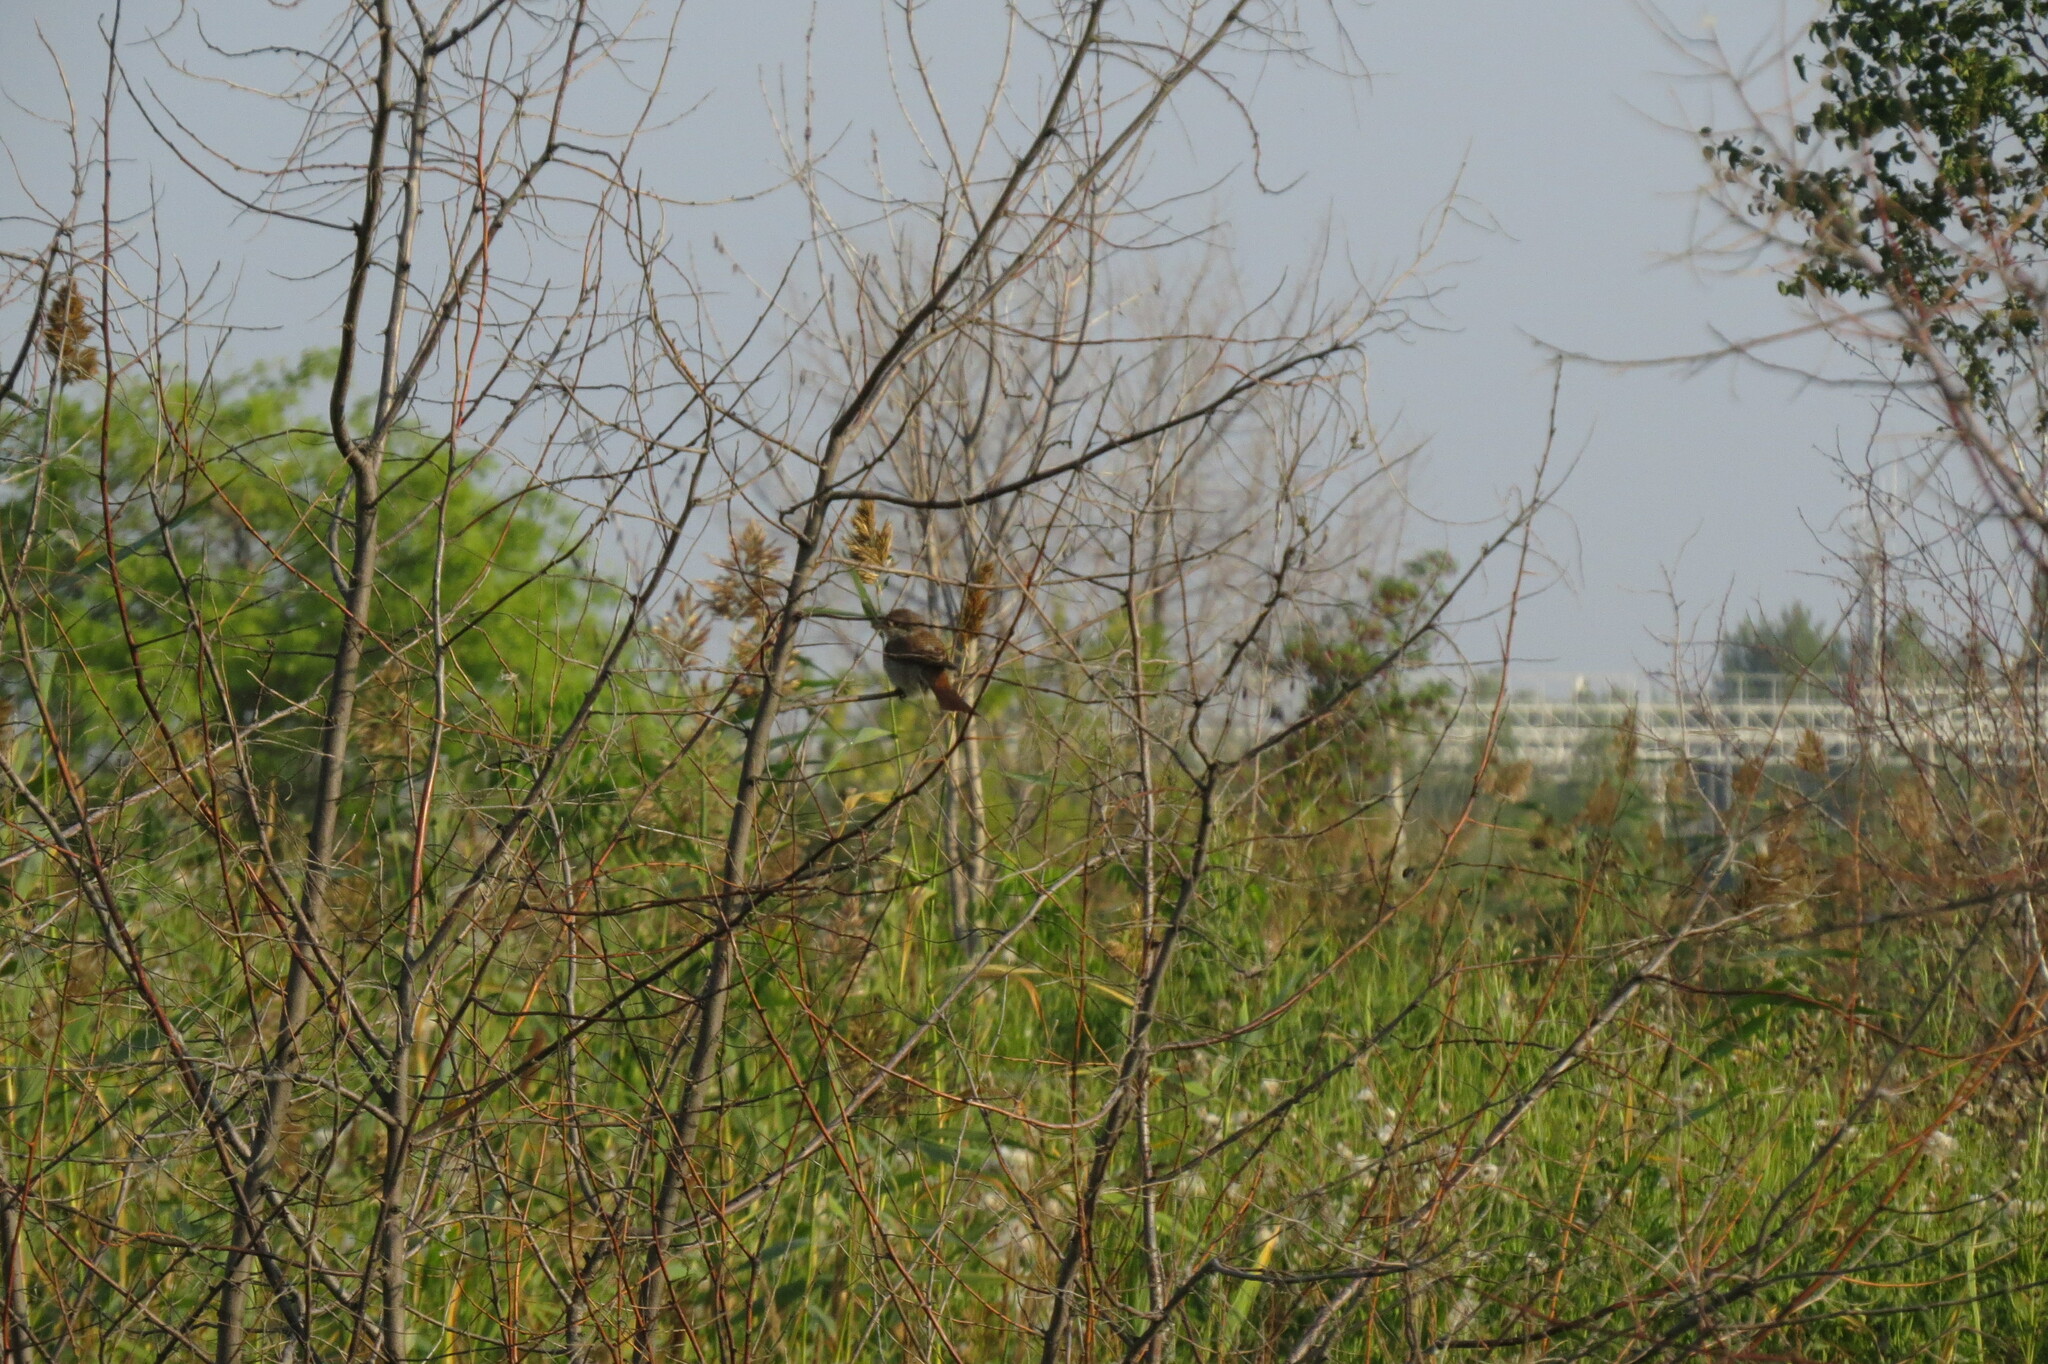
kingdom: Animalia
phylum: Chordata
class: Aves
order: Passeriformes
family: Laniidae
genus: Lanius
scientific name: Lanius collurio
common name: Red-backed shrike
